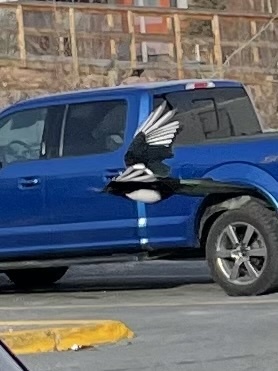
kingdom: Animalia
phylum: Chordata
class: Aves
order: Passeriformes
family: Corvidae
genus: Pica
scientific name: Pica hudsonia
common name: Black-billed magpie
